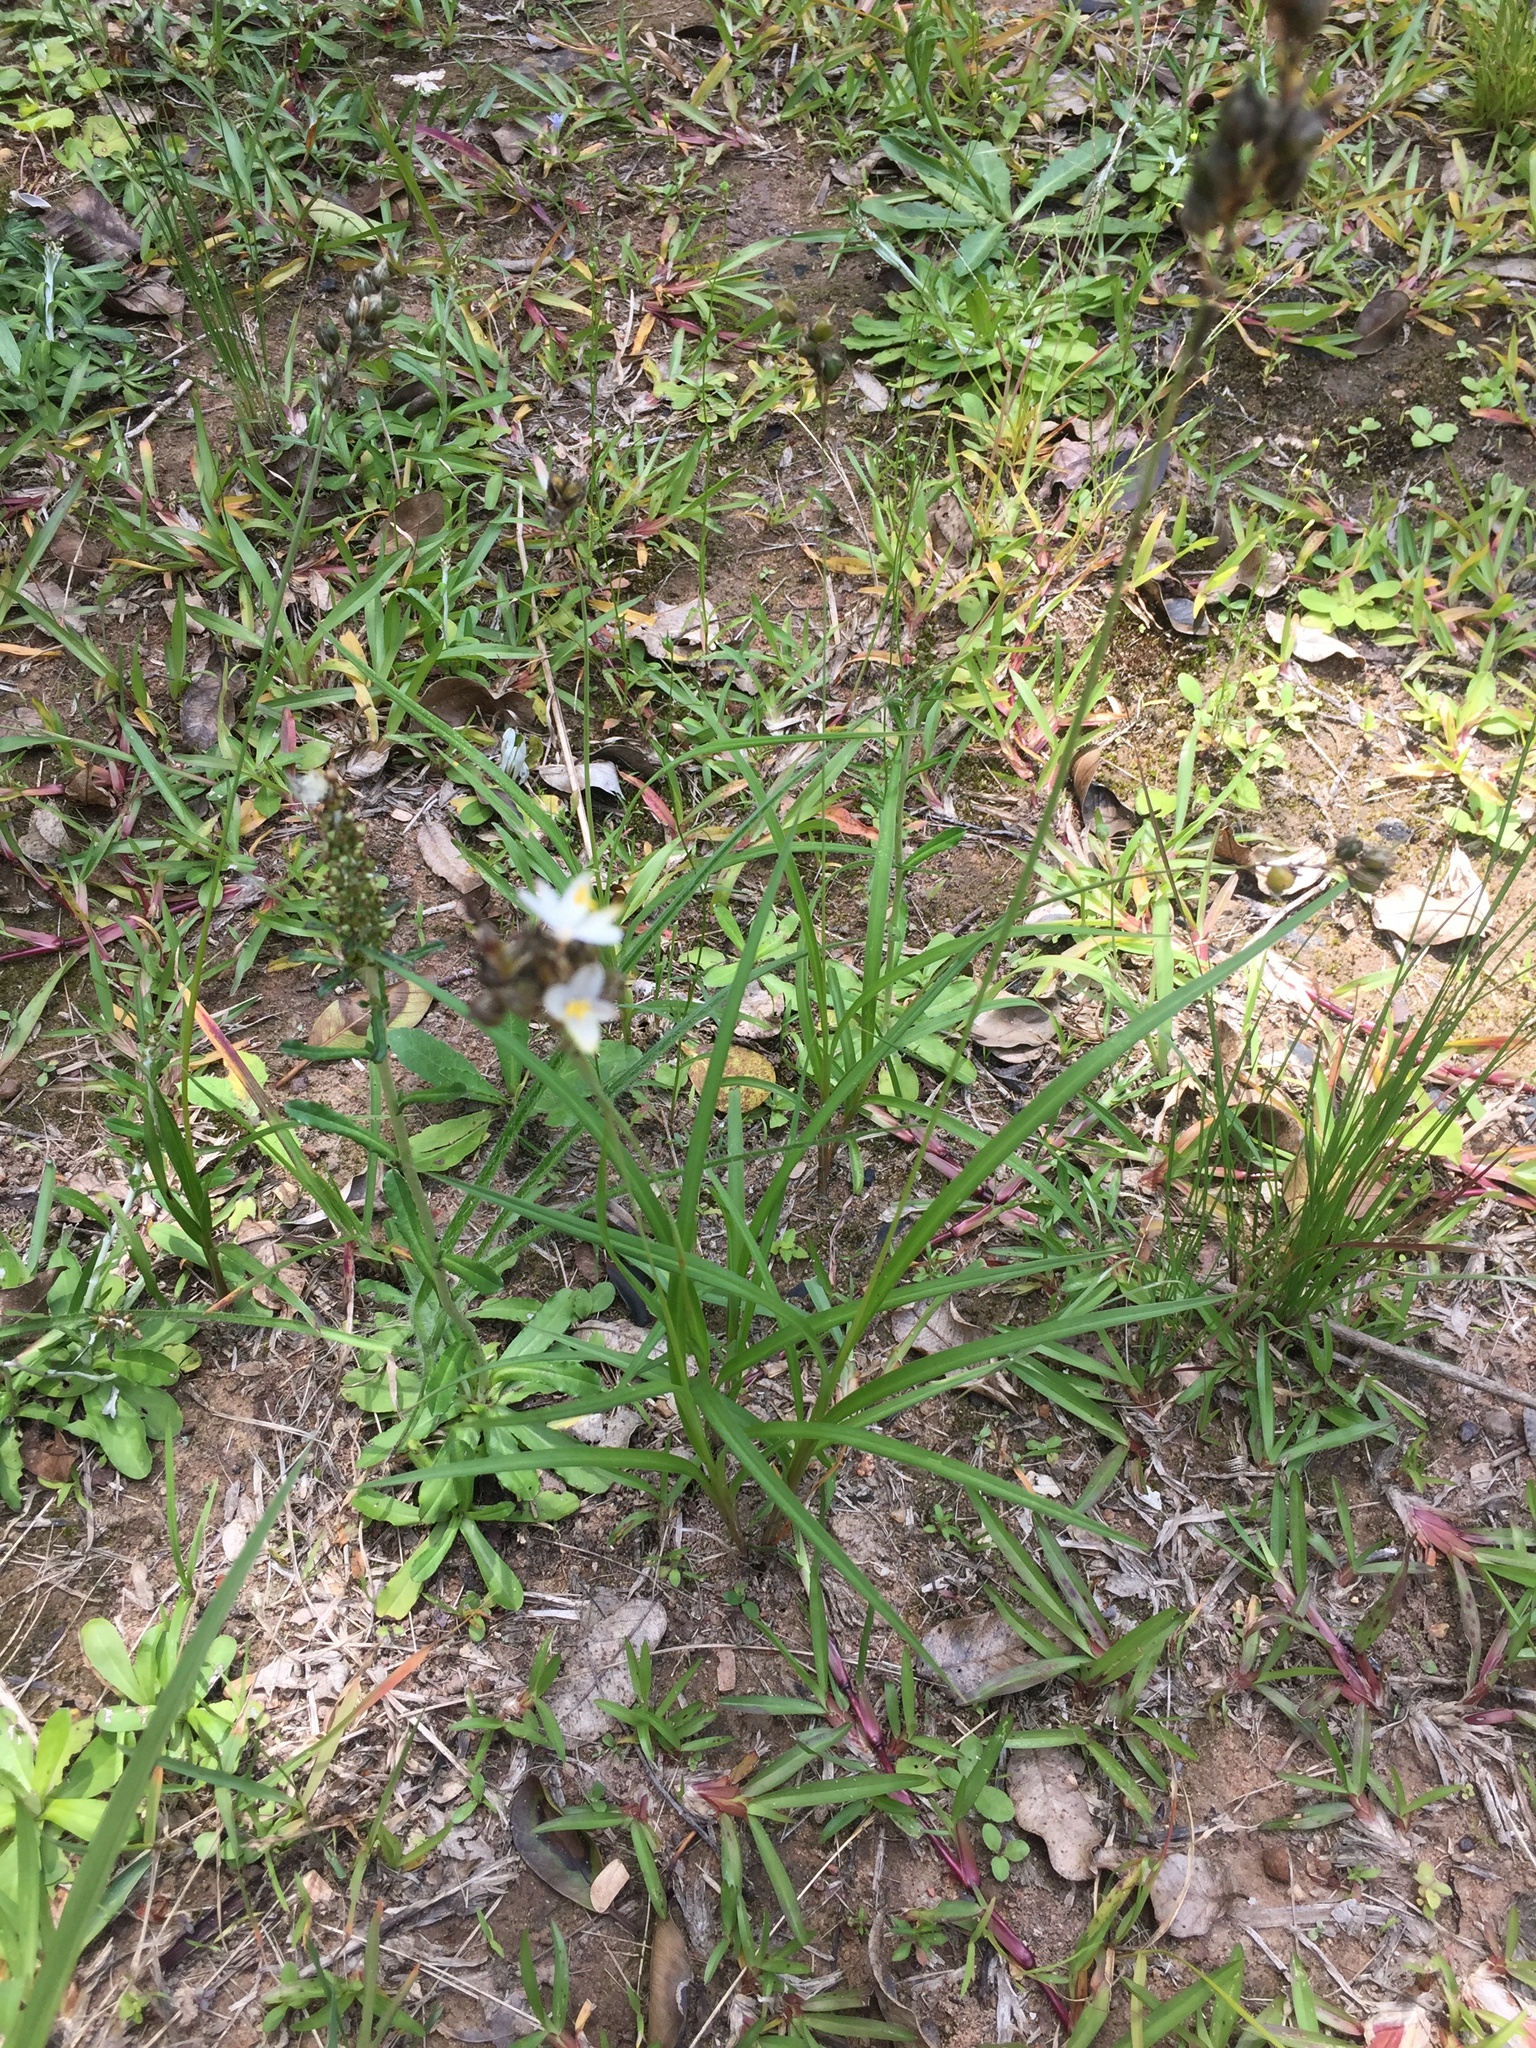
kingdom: Plantae
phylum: Tracheophyta
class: Liliopsida
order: Asparagales
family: Asparagaceae
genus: Chlorophytum
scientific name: Chlorophytum saundersiae
